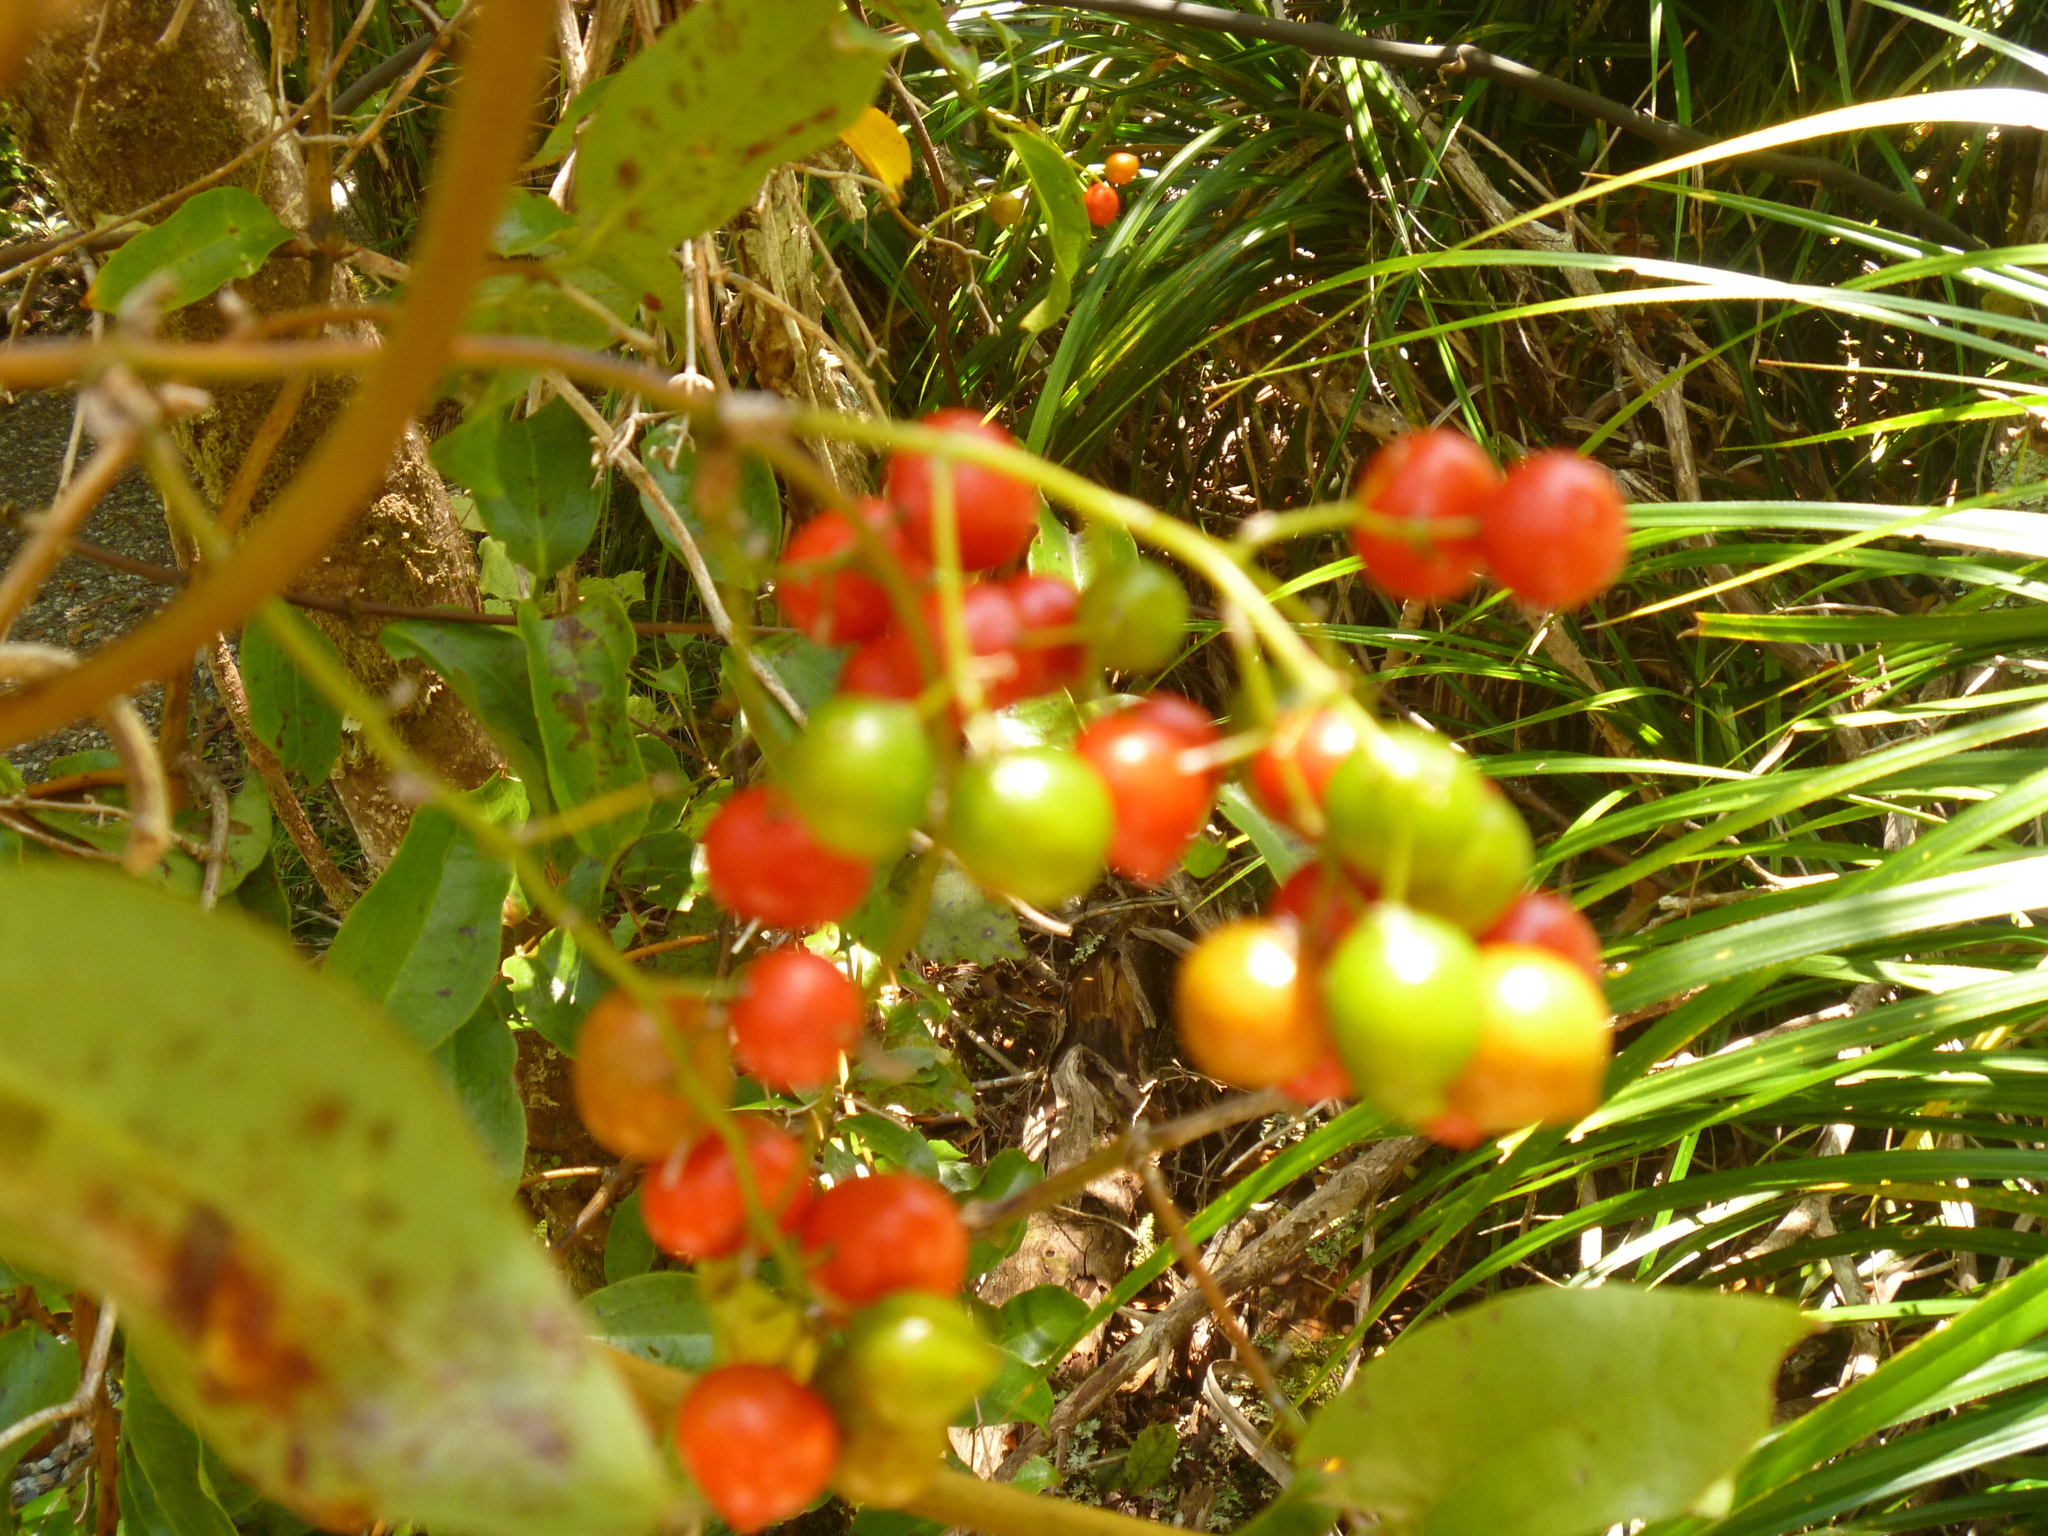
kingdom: Plantae
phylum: Tracheophyta
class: Liliopsida
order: Liliales
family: Ripogonaceae
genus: Ripogonum
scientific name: Ripogonum scandens
